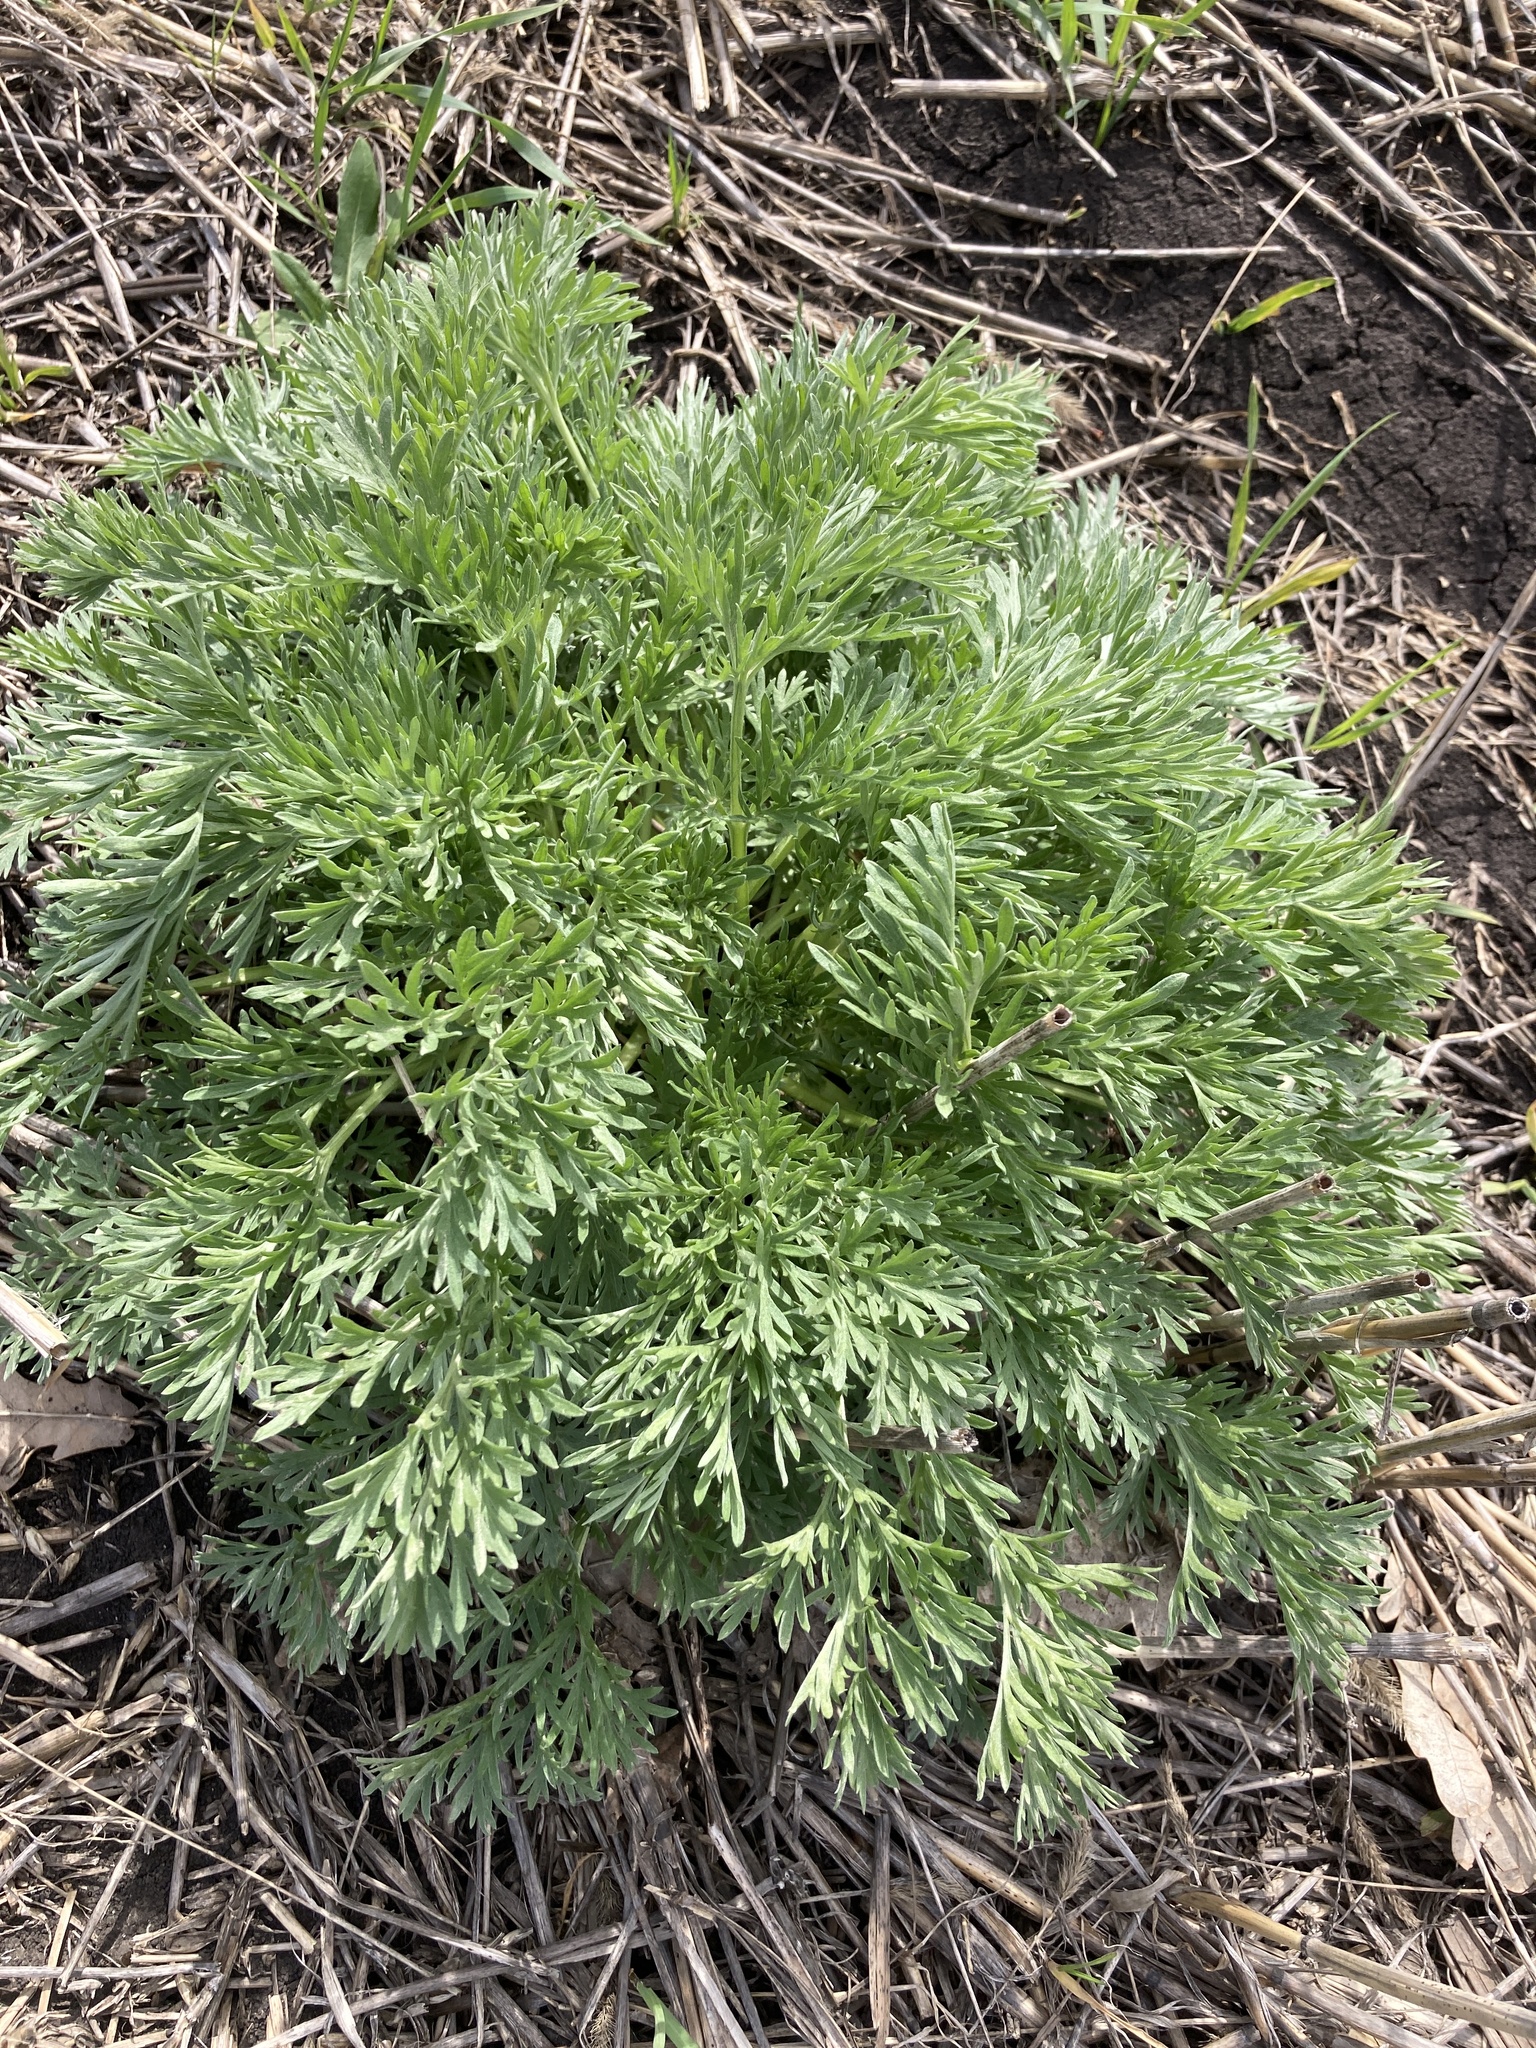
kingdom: Plantae
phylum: Tracheophyta
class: Magnoliopsida
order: Asterales
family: Asteraceae
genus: Artemisia
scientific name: Artemisia absinthium
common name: Wormwood
